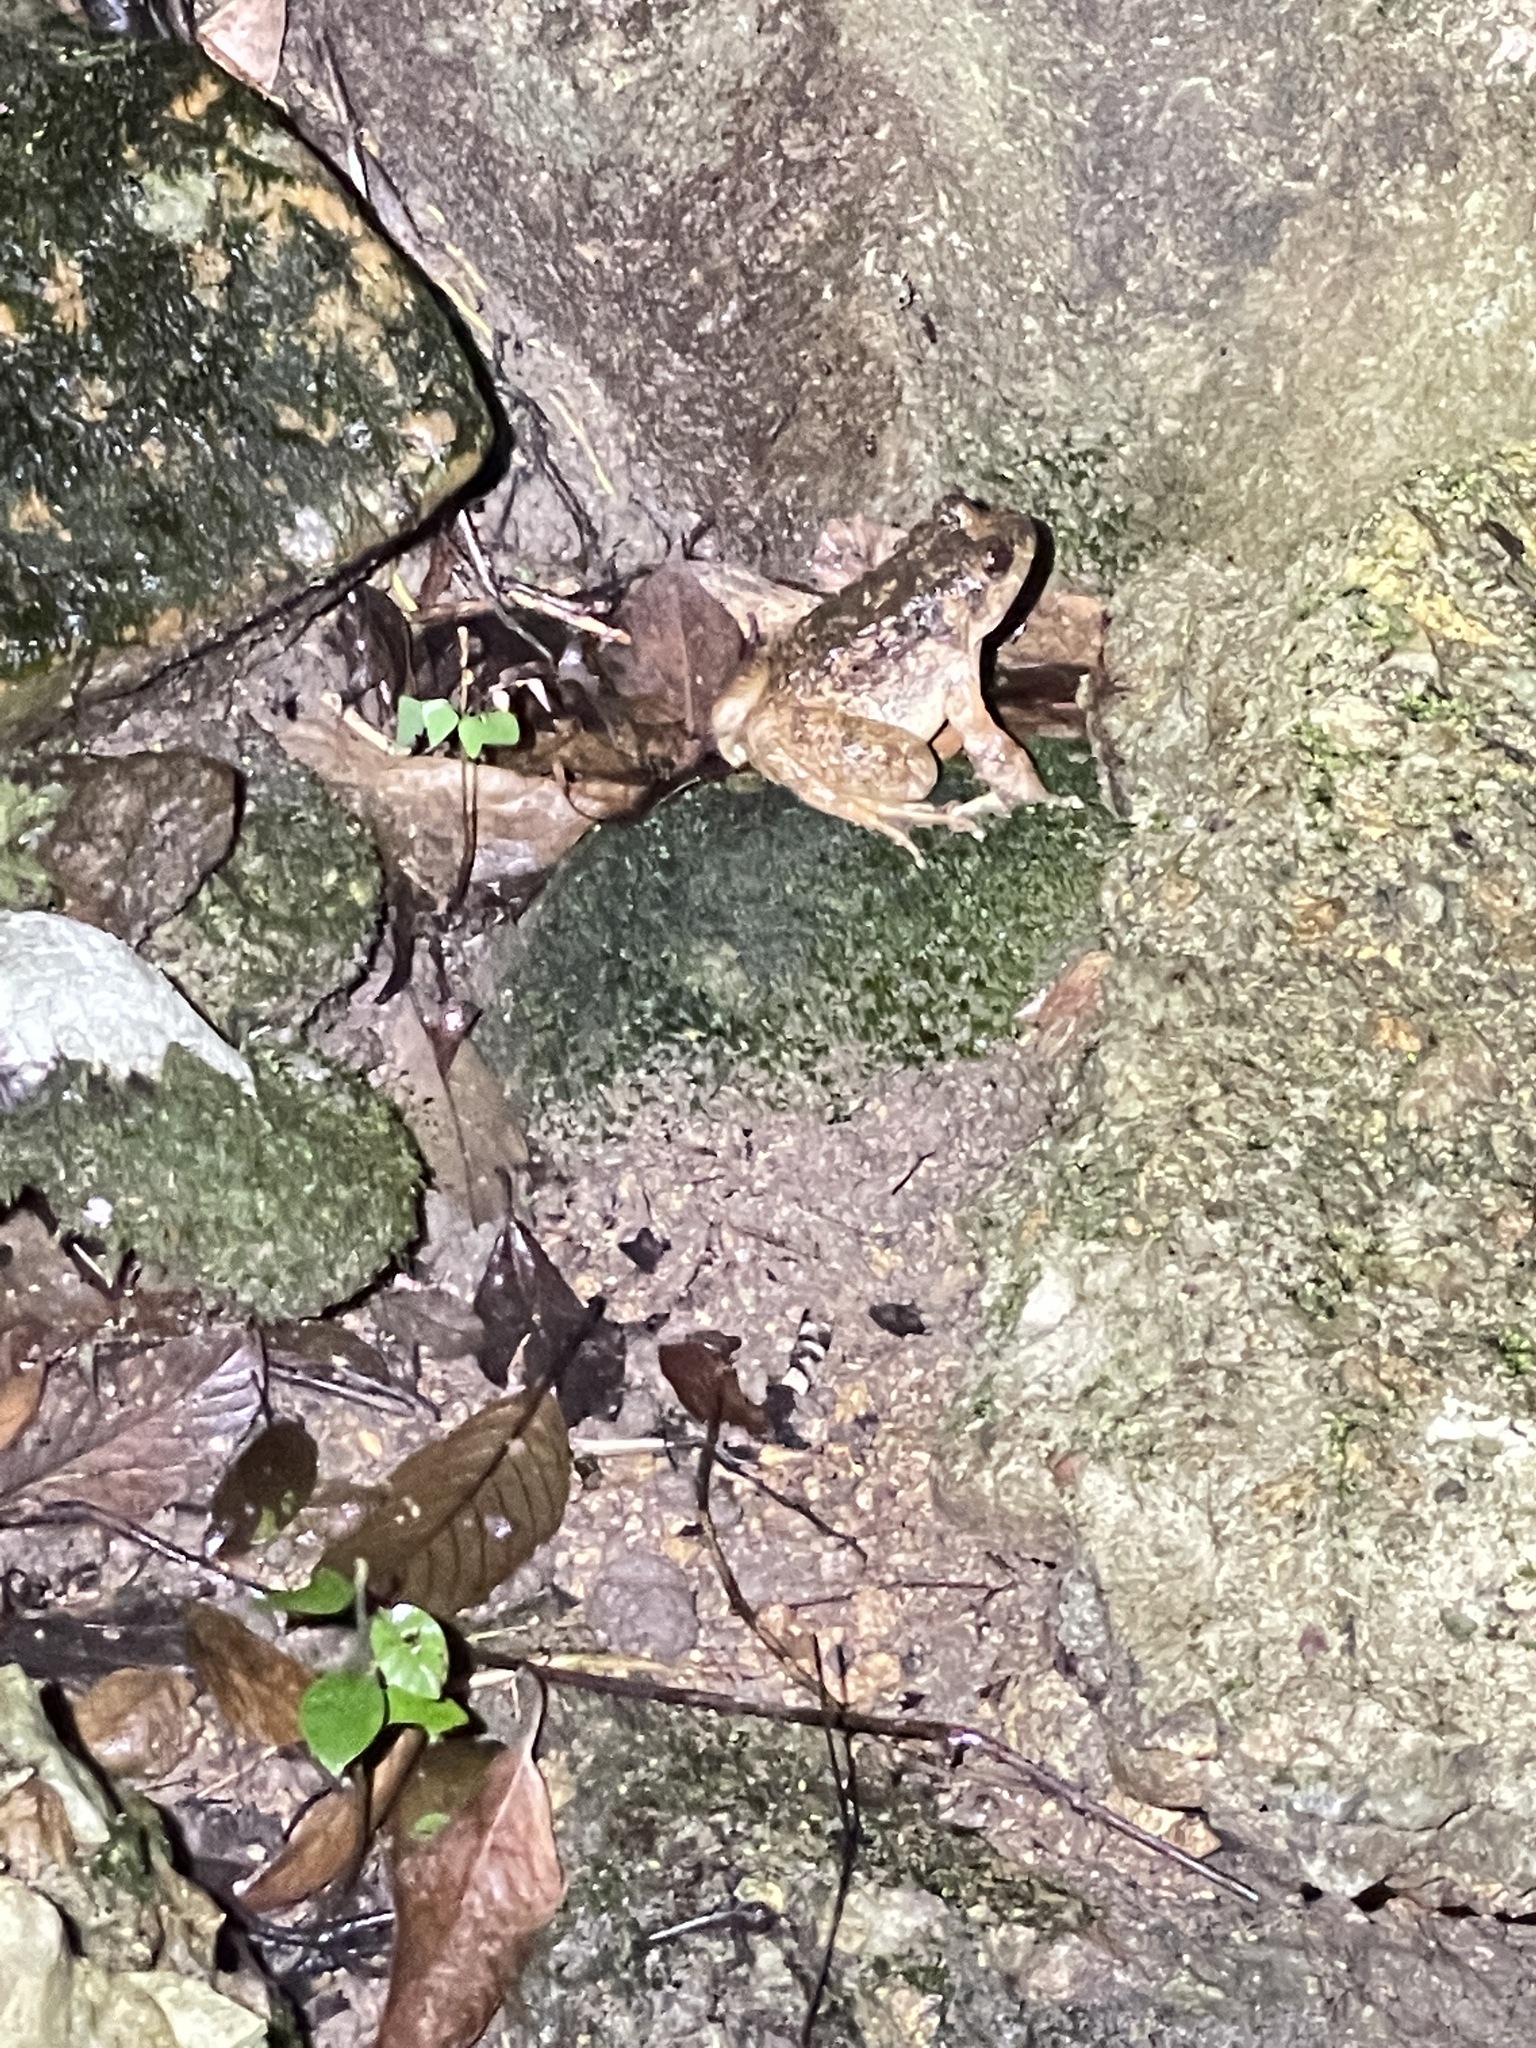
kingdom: Animalia
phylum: Chordata
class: Amphibia
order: Anura
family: Dicroglossidae
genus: Quasipaa
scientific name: Quasipaa exilispinosa
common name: Hong kong paa frog
